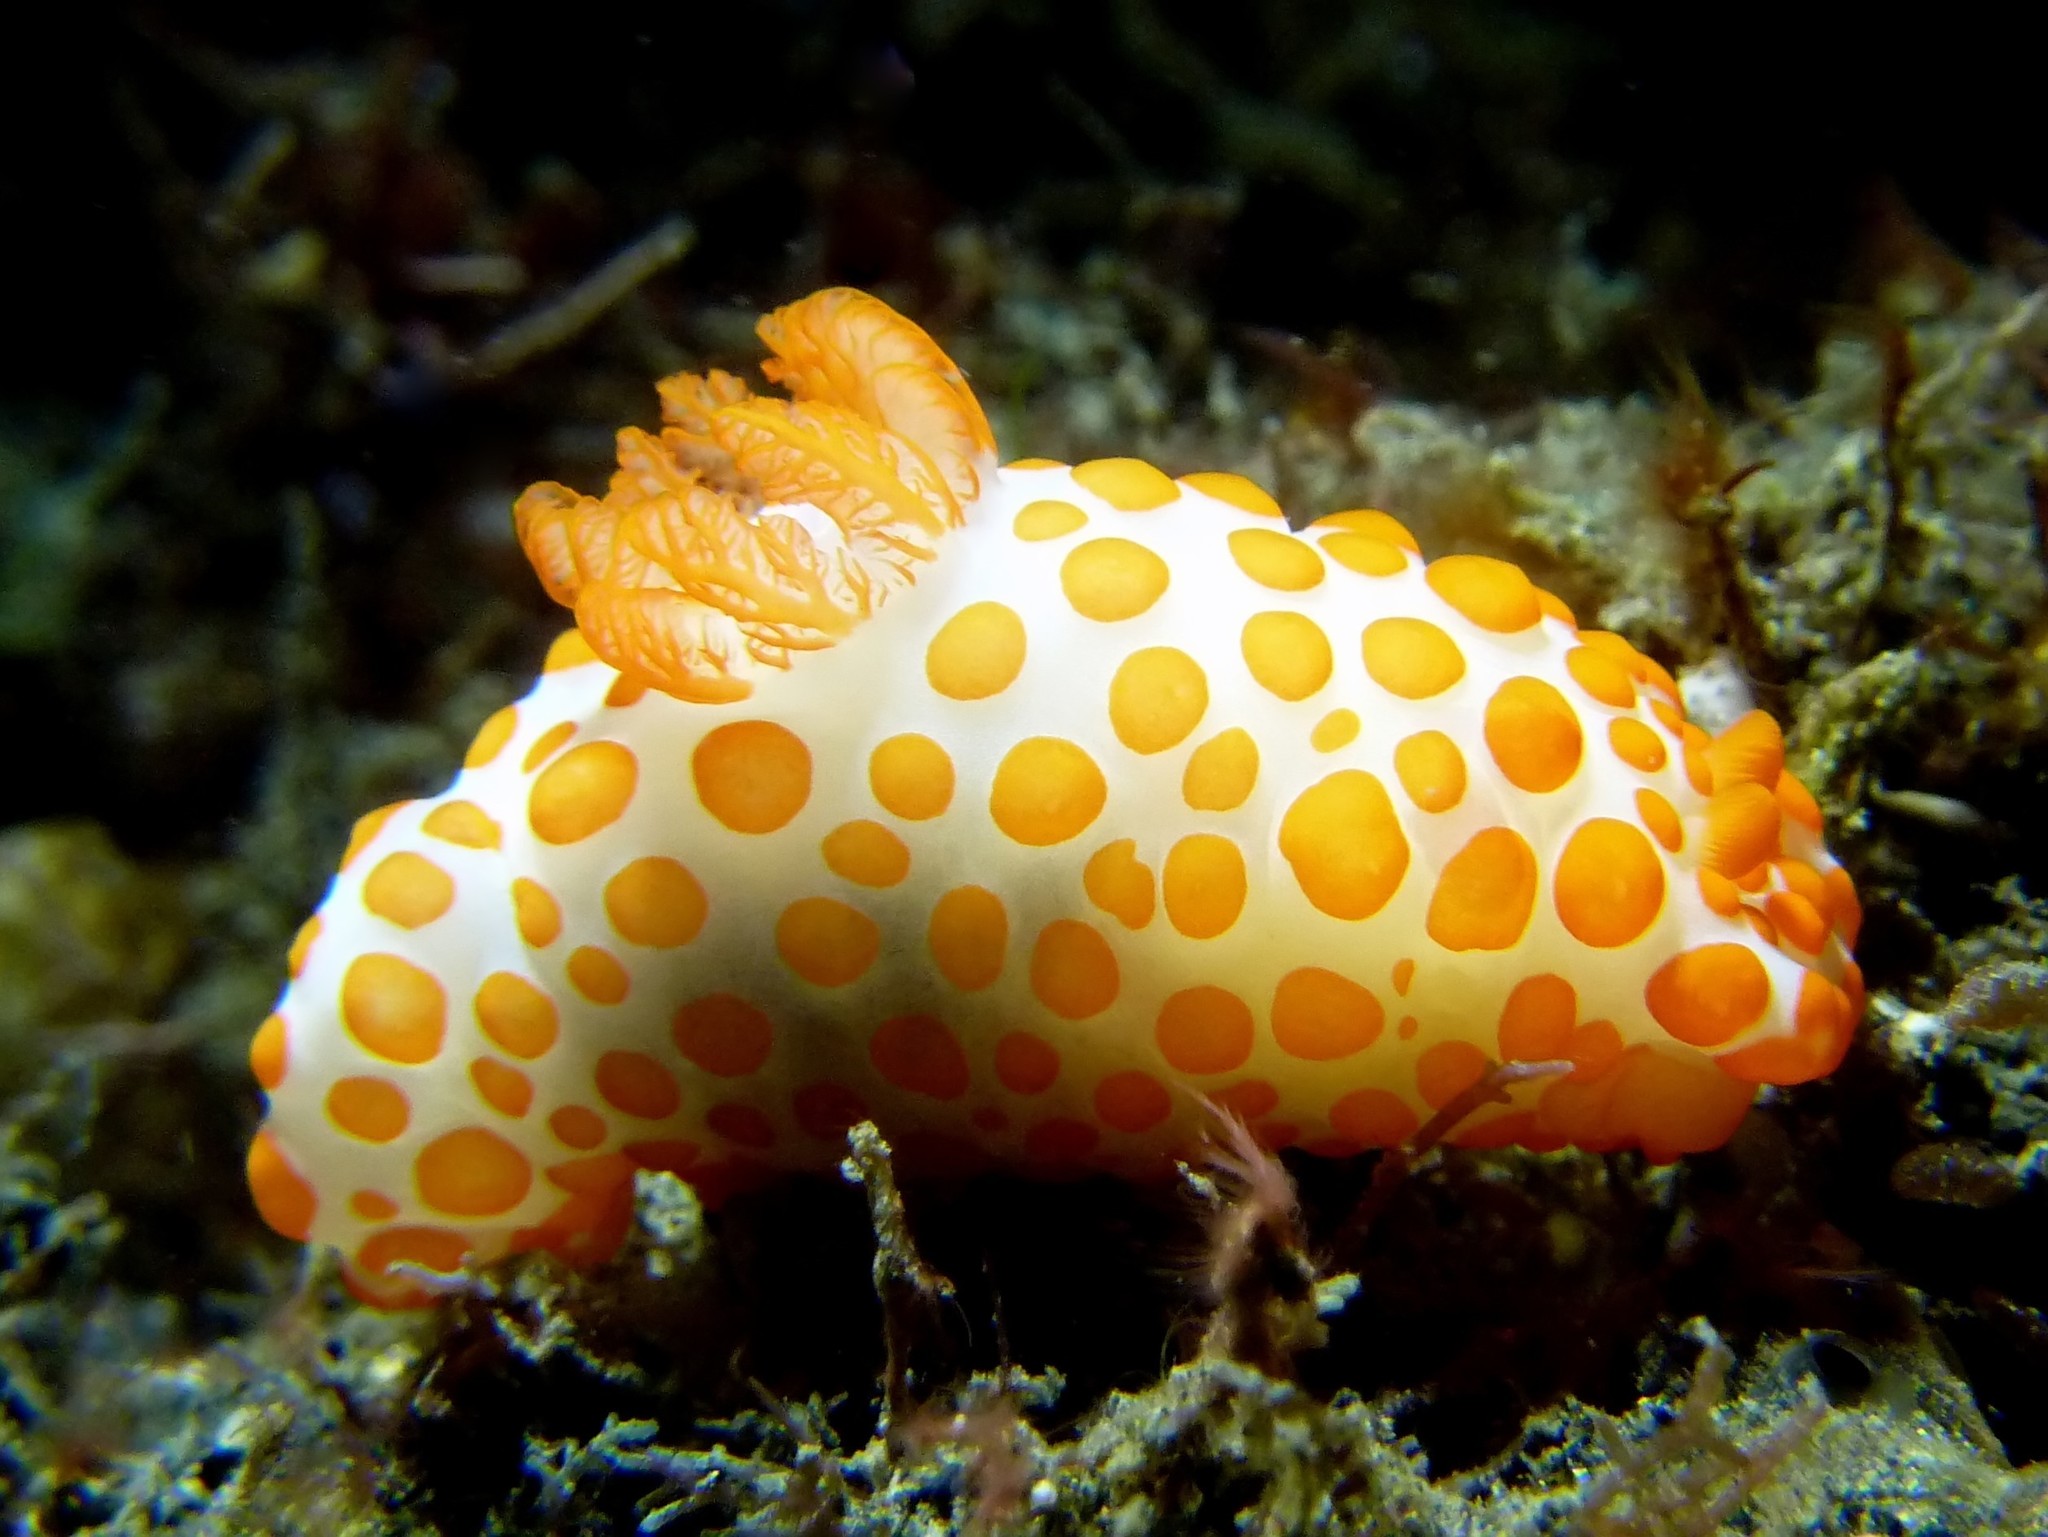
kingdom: Animalia
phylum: Mollusca
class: Gastropoda
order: Nudibranchia
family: Polyceridae
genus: Gymnodoris
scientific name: Gymnodoris impudica
